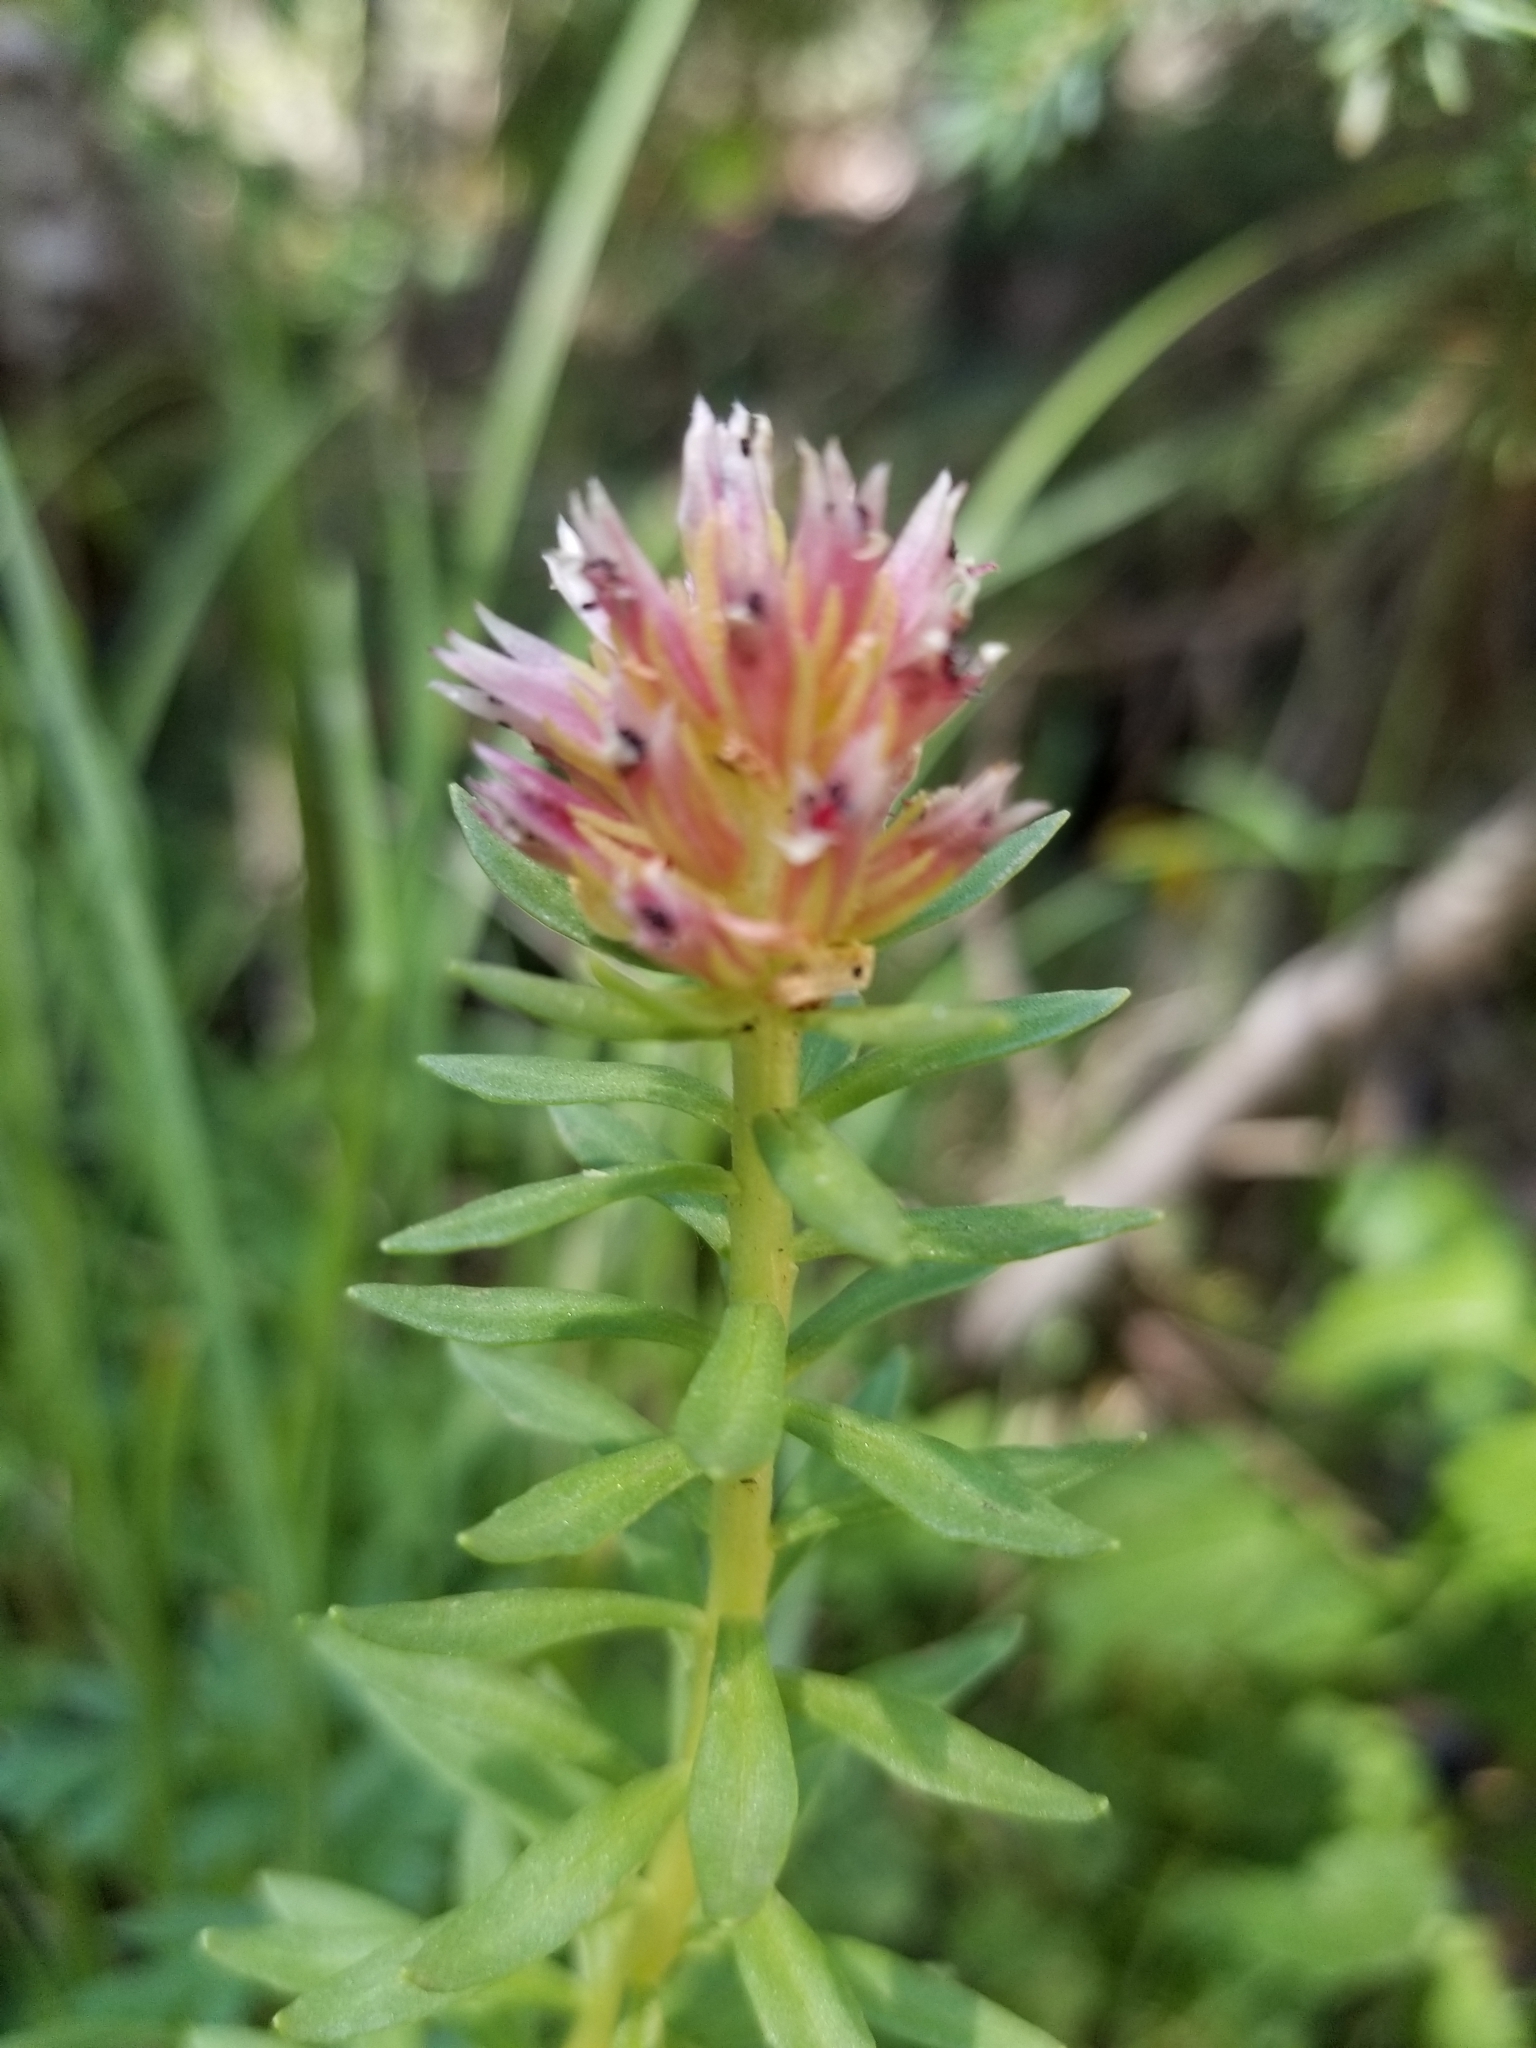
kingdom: Plantae
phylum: Tracheophyta
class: Magnoliopsida
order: Saxifragales
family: Crassulaceae
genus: Rhodiola
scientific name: Rhodiola rhodantha
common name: Red orpine
